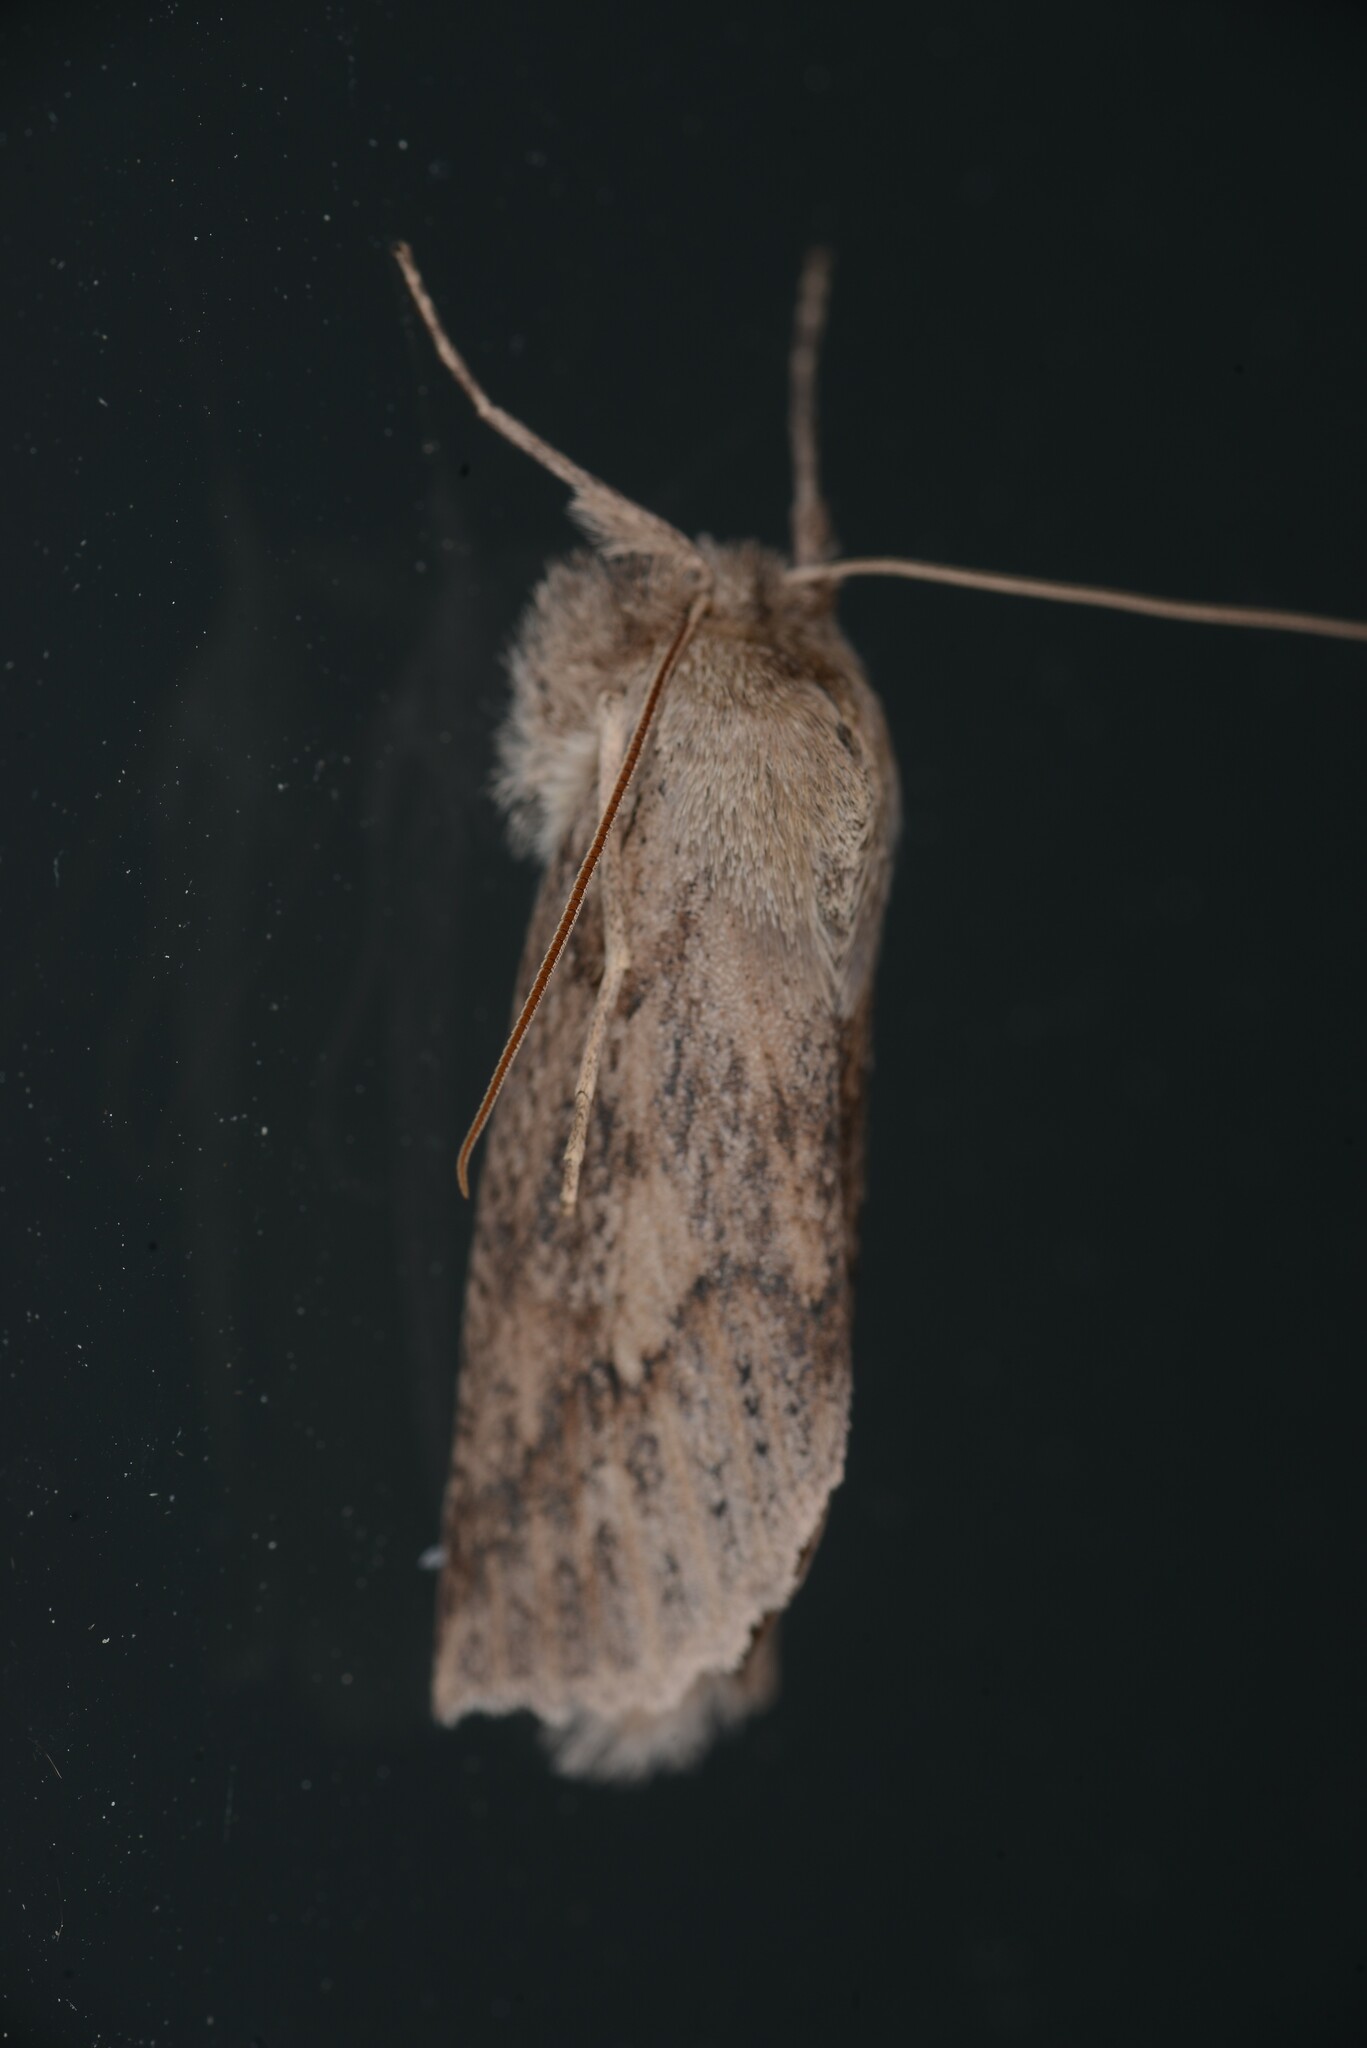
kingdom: Animalia
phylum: Arthropoda
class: Insecta
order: Lepidoptera
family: Geometridae
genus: Declana
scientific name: Declana leptomera
